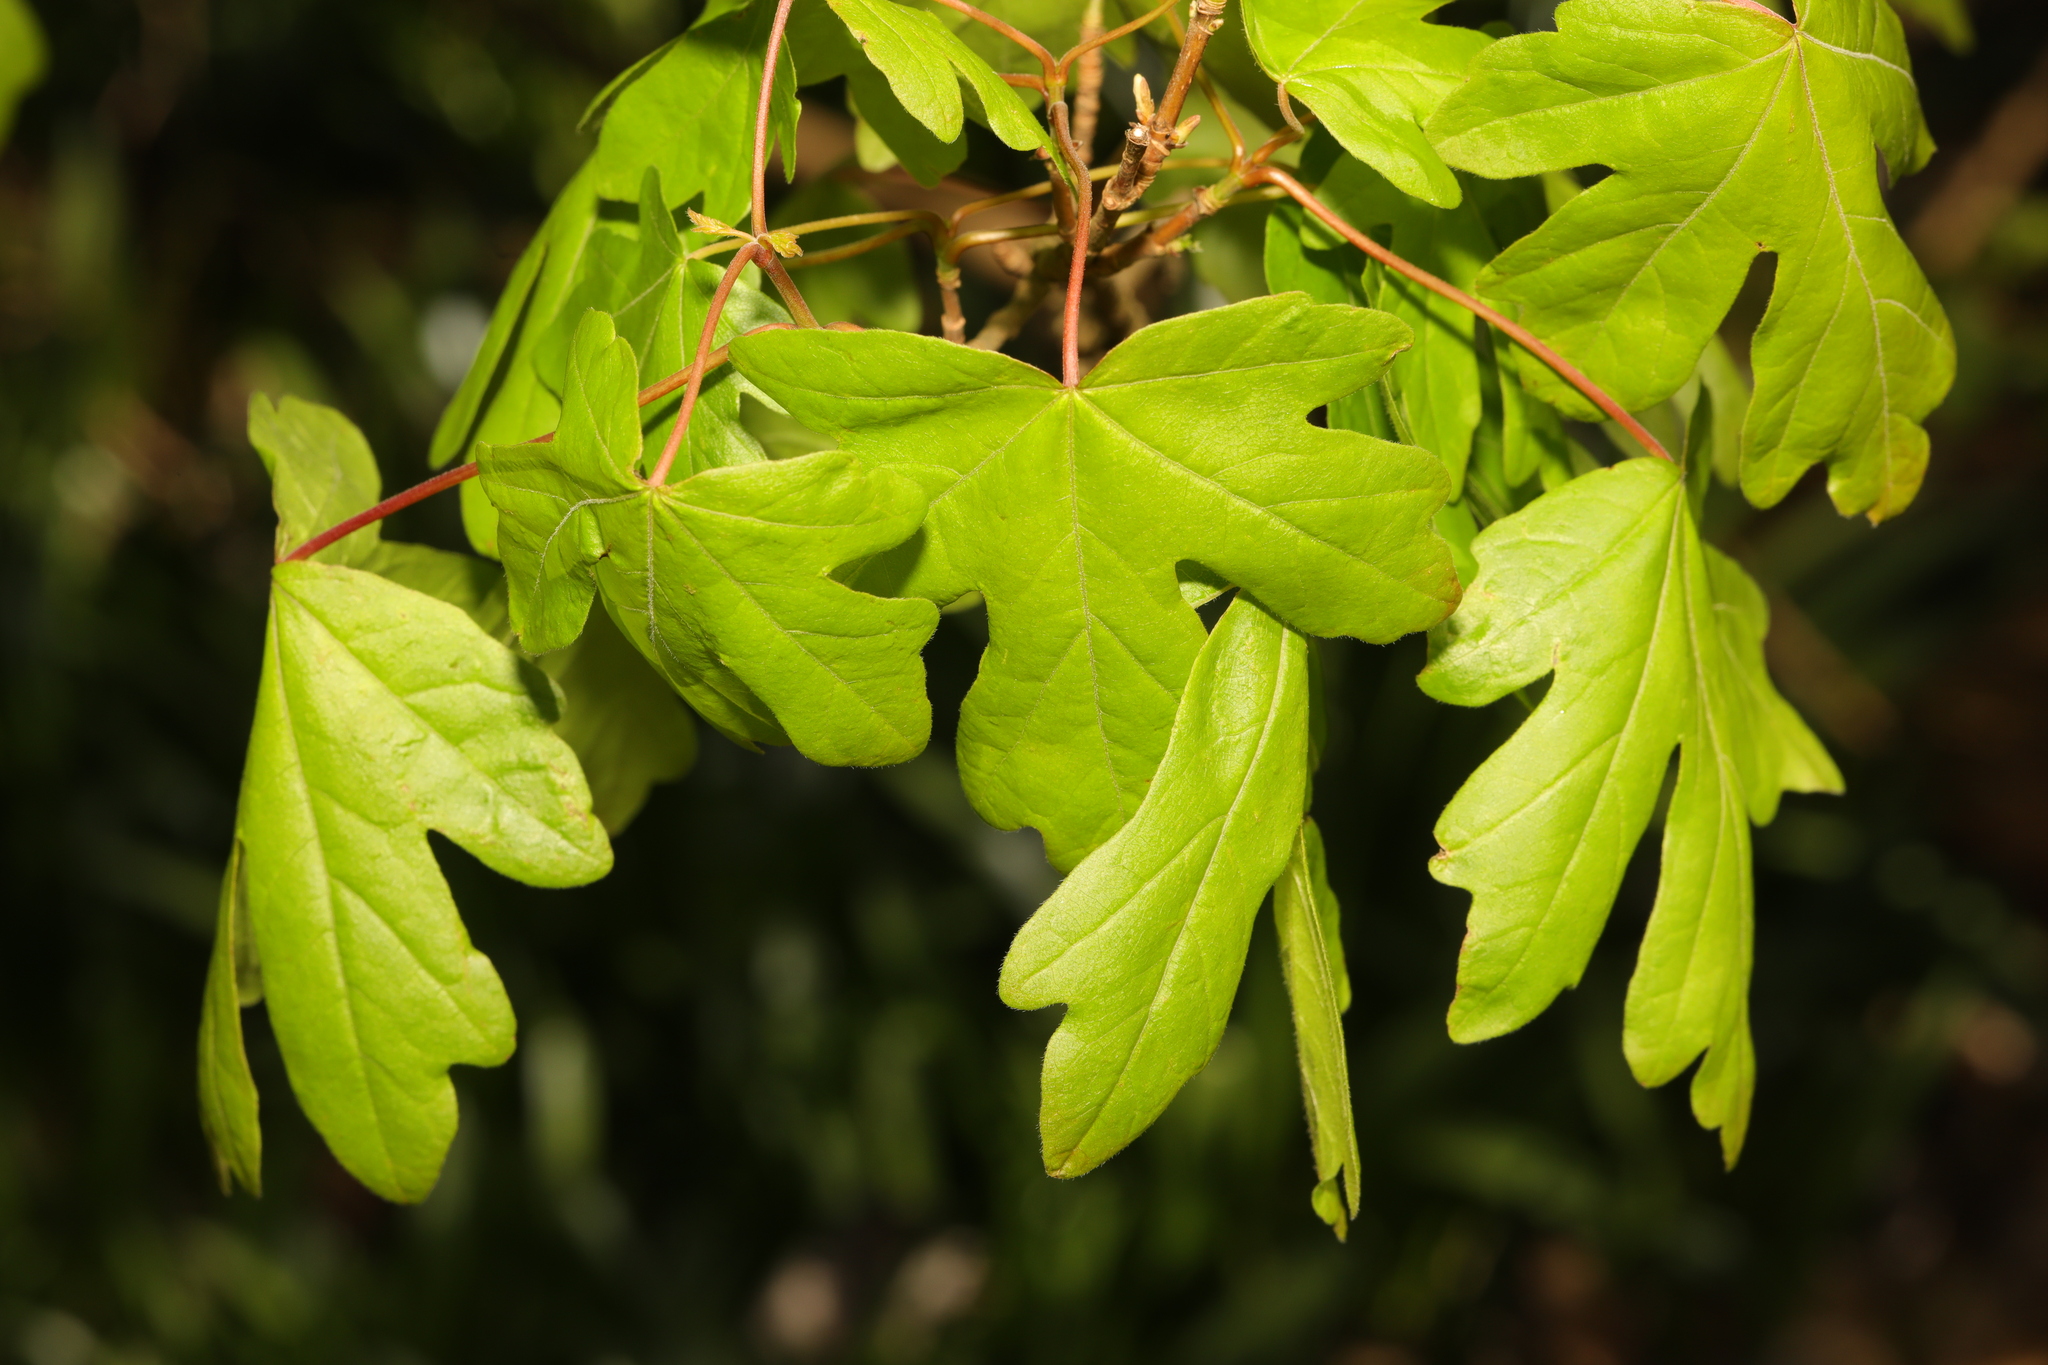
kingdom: Plantae
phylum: Tracheophyta
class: Magnoliopsida
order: Sapindales
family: Sapindaceae
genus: Acer
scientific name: Acer campestre
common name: Field maple
